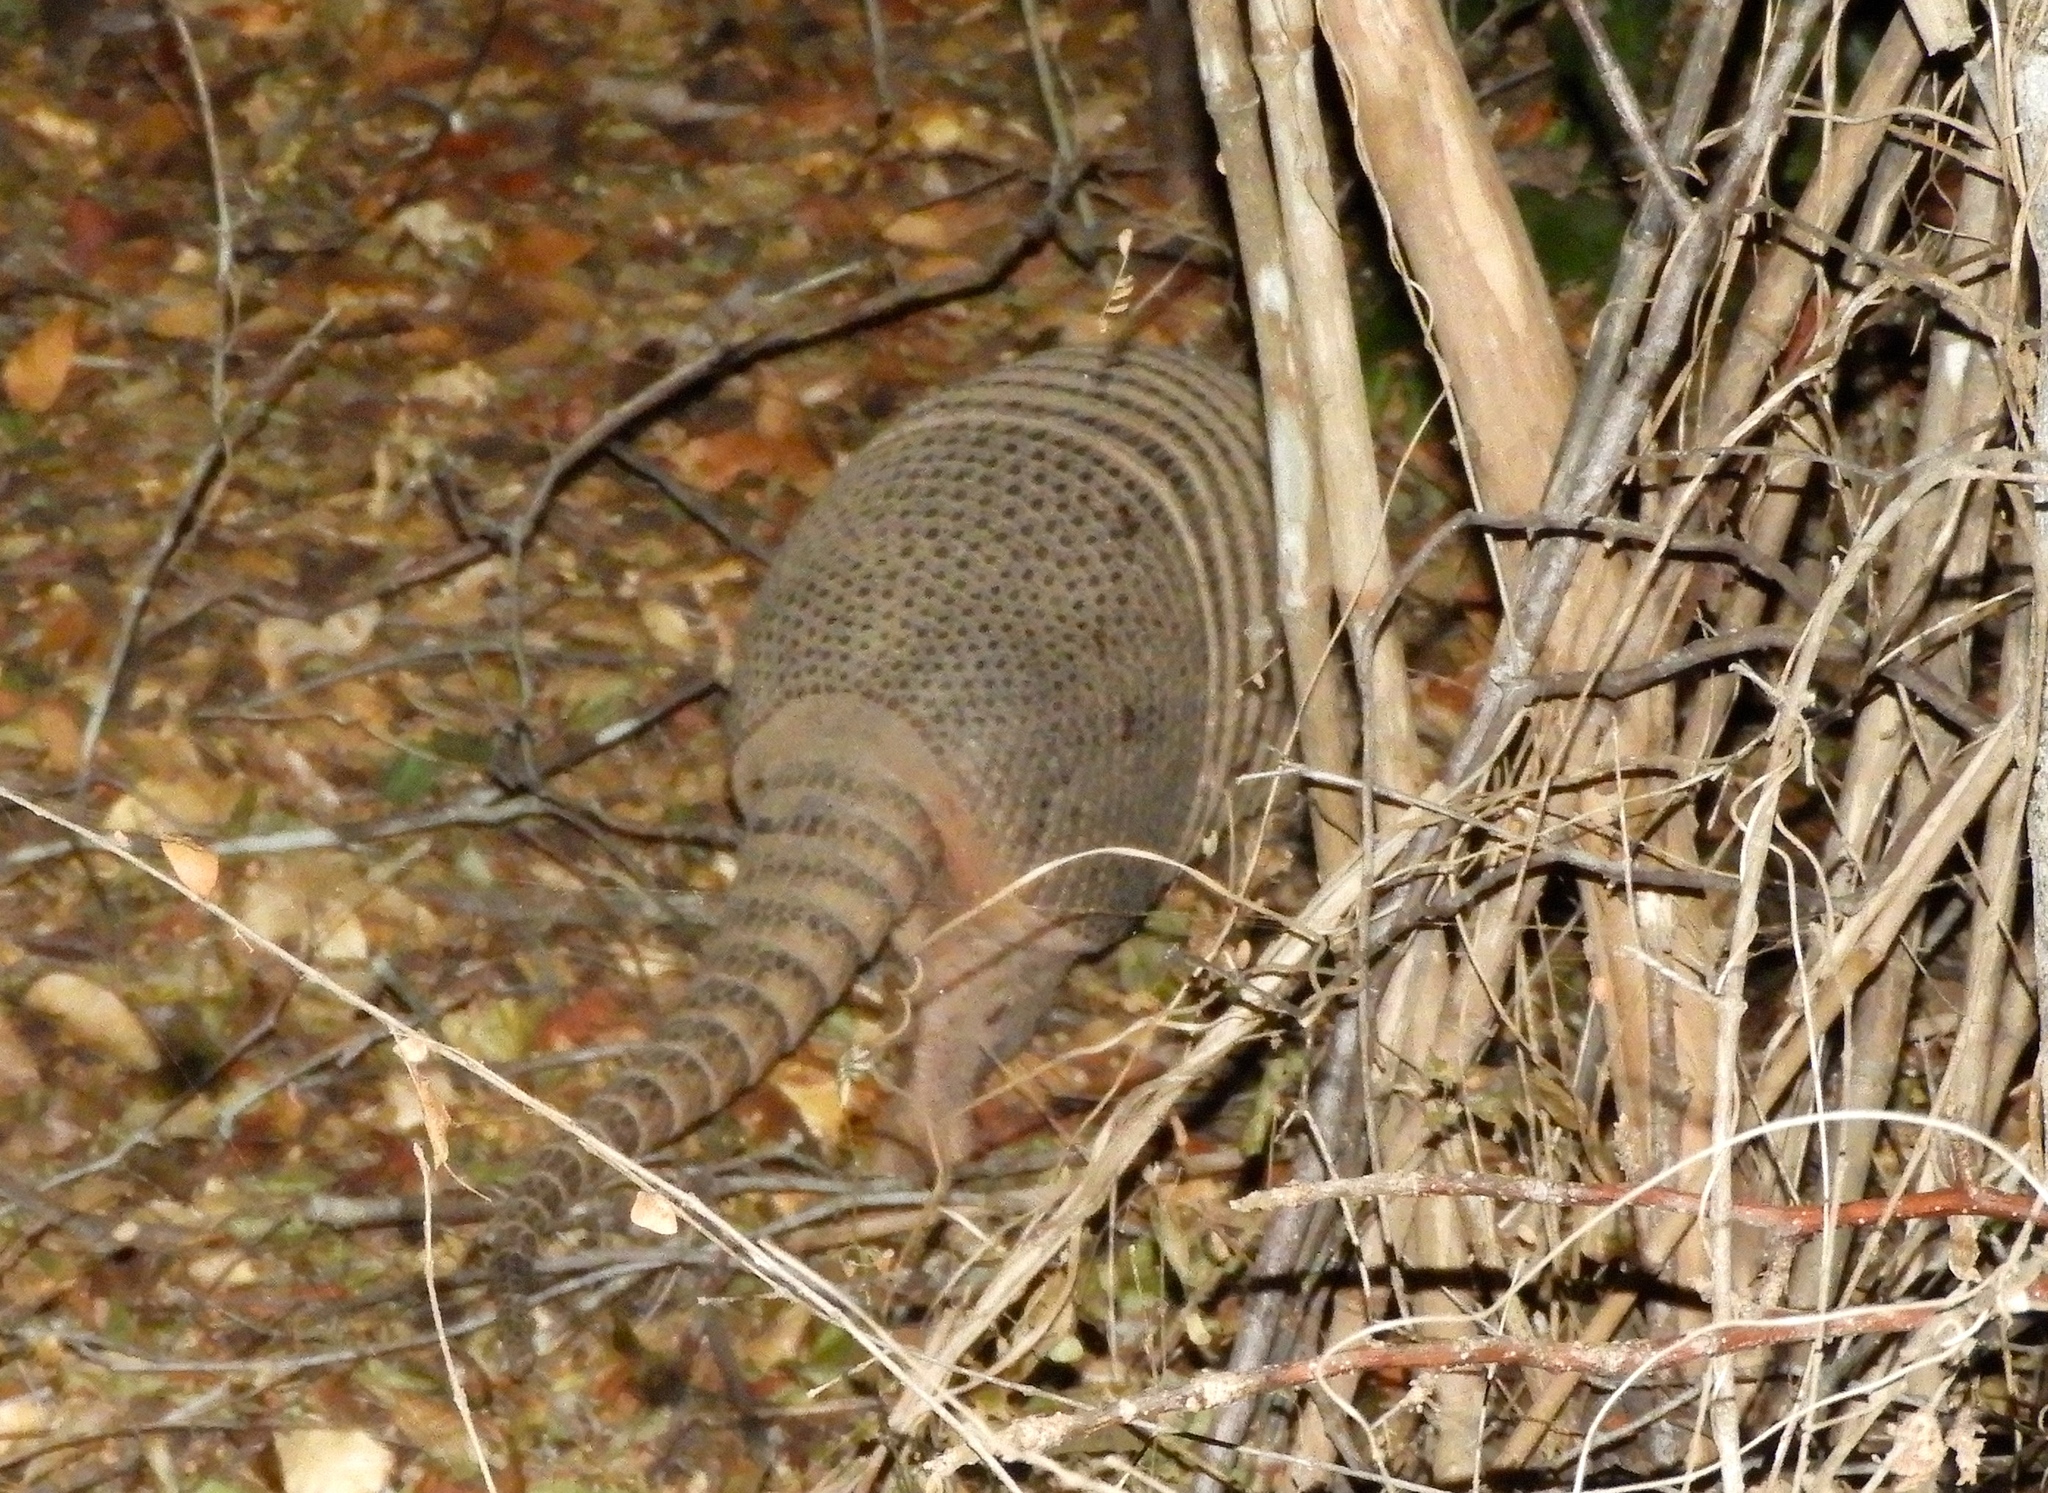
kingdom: Animalia
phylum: Chordata
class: Mammalia
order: Cingulata
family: Dasypodidae
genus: Dasypus
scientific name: Dasypus novemcinctus
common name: Nine-banded armadillo
